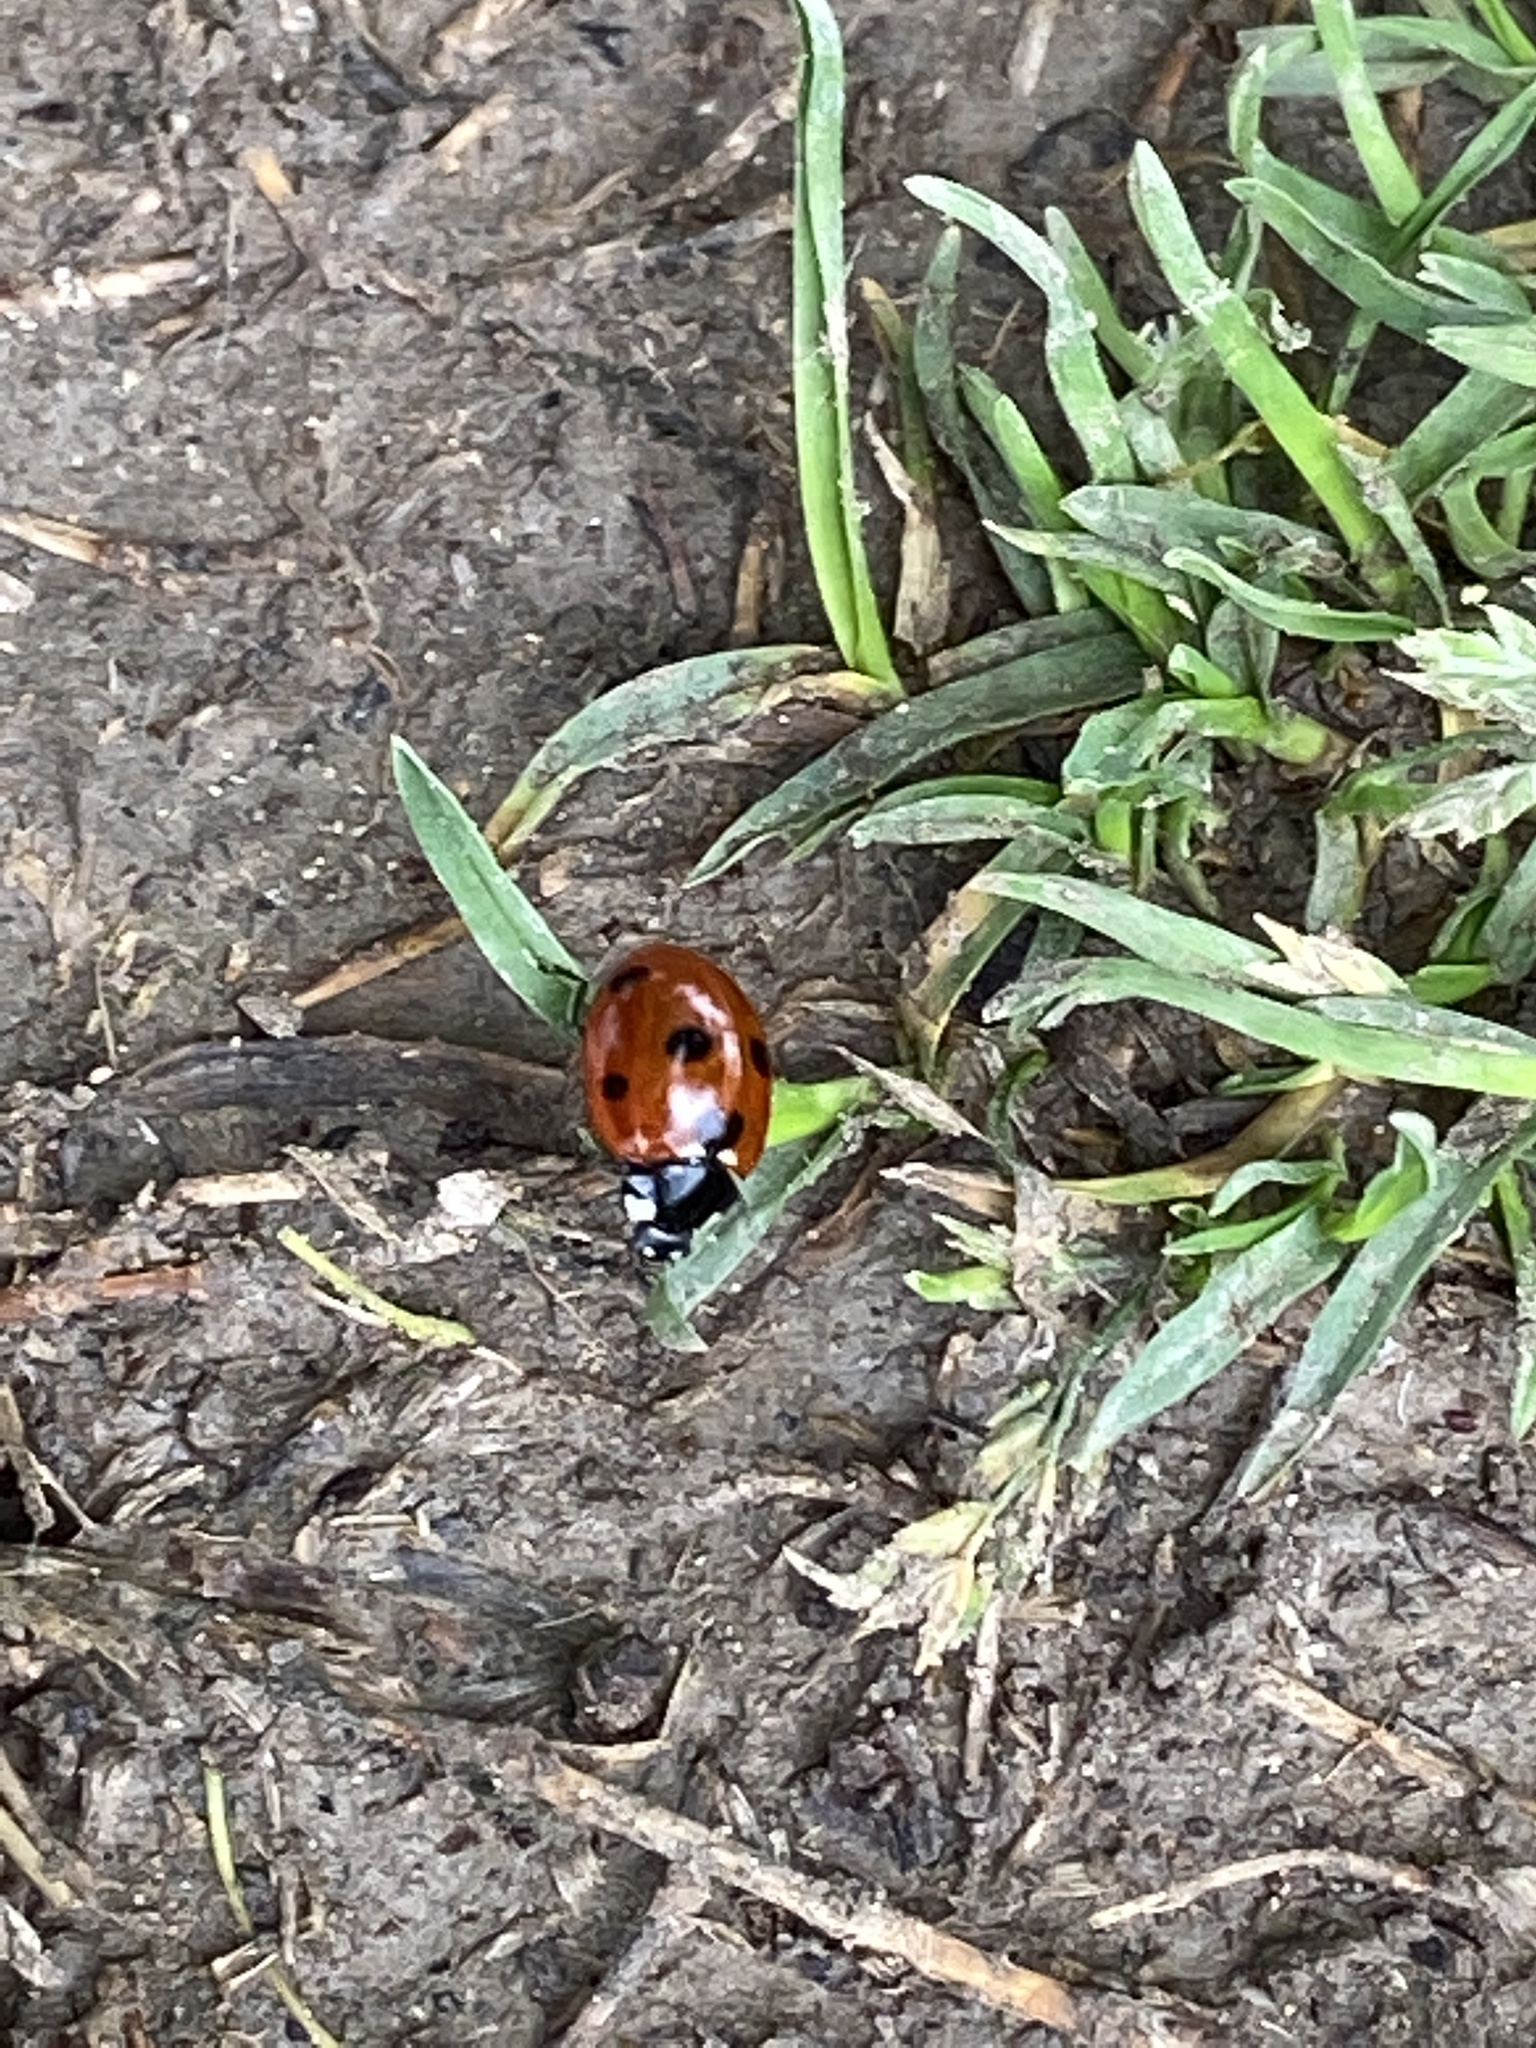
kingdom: Animalia
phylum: Arthropoda
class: Insecta
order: Coleoptera
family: Coccinellidae
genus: Coccinella
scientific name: Coccinella septempunctata
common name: Sevenspotted lady beetle
